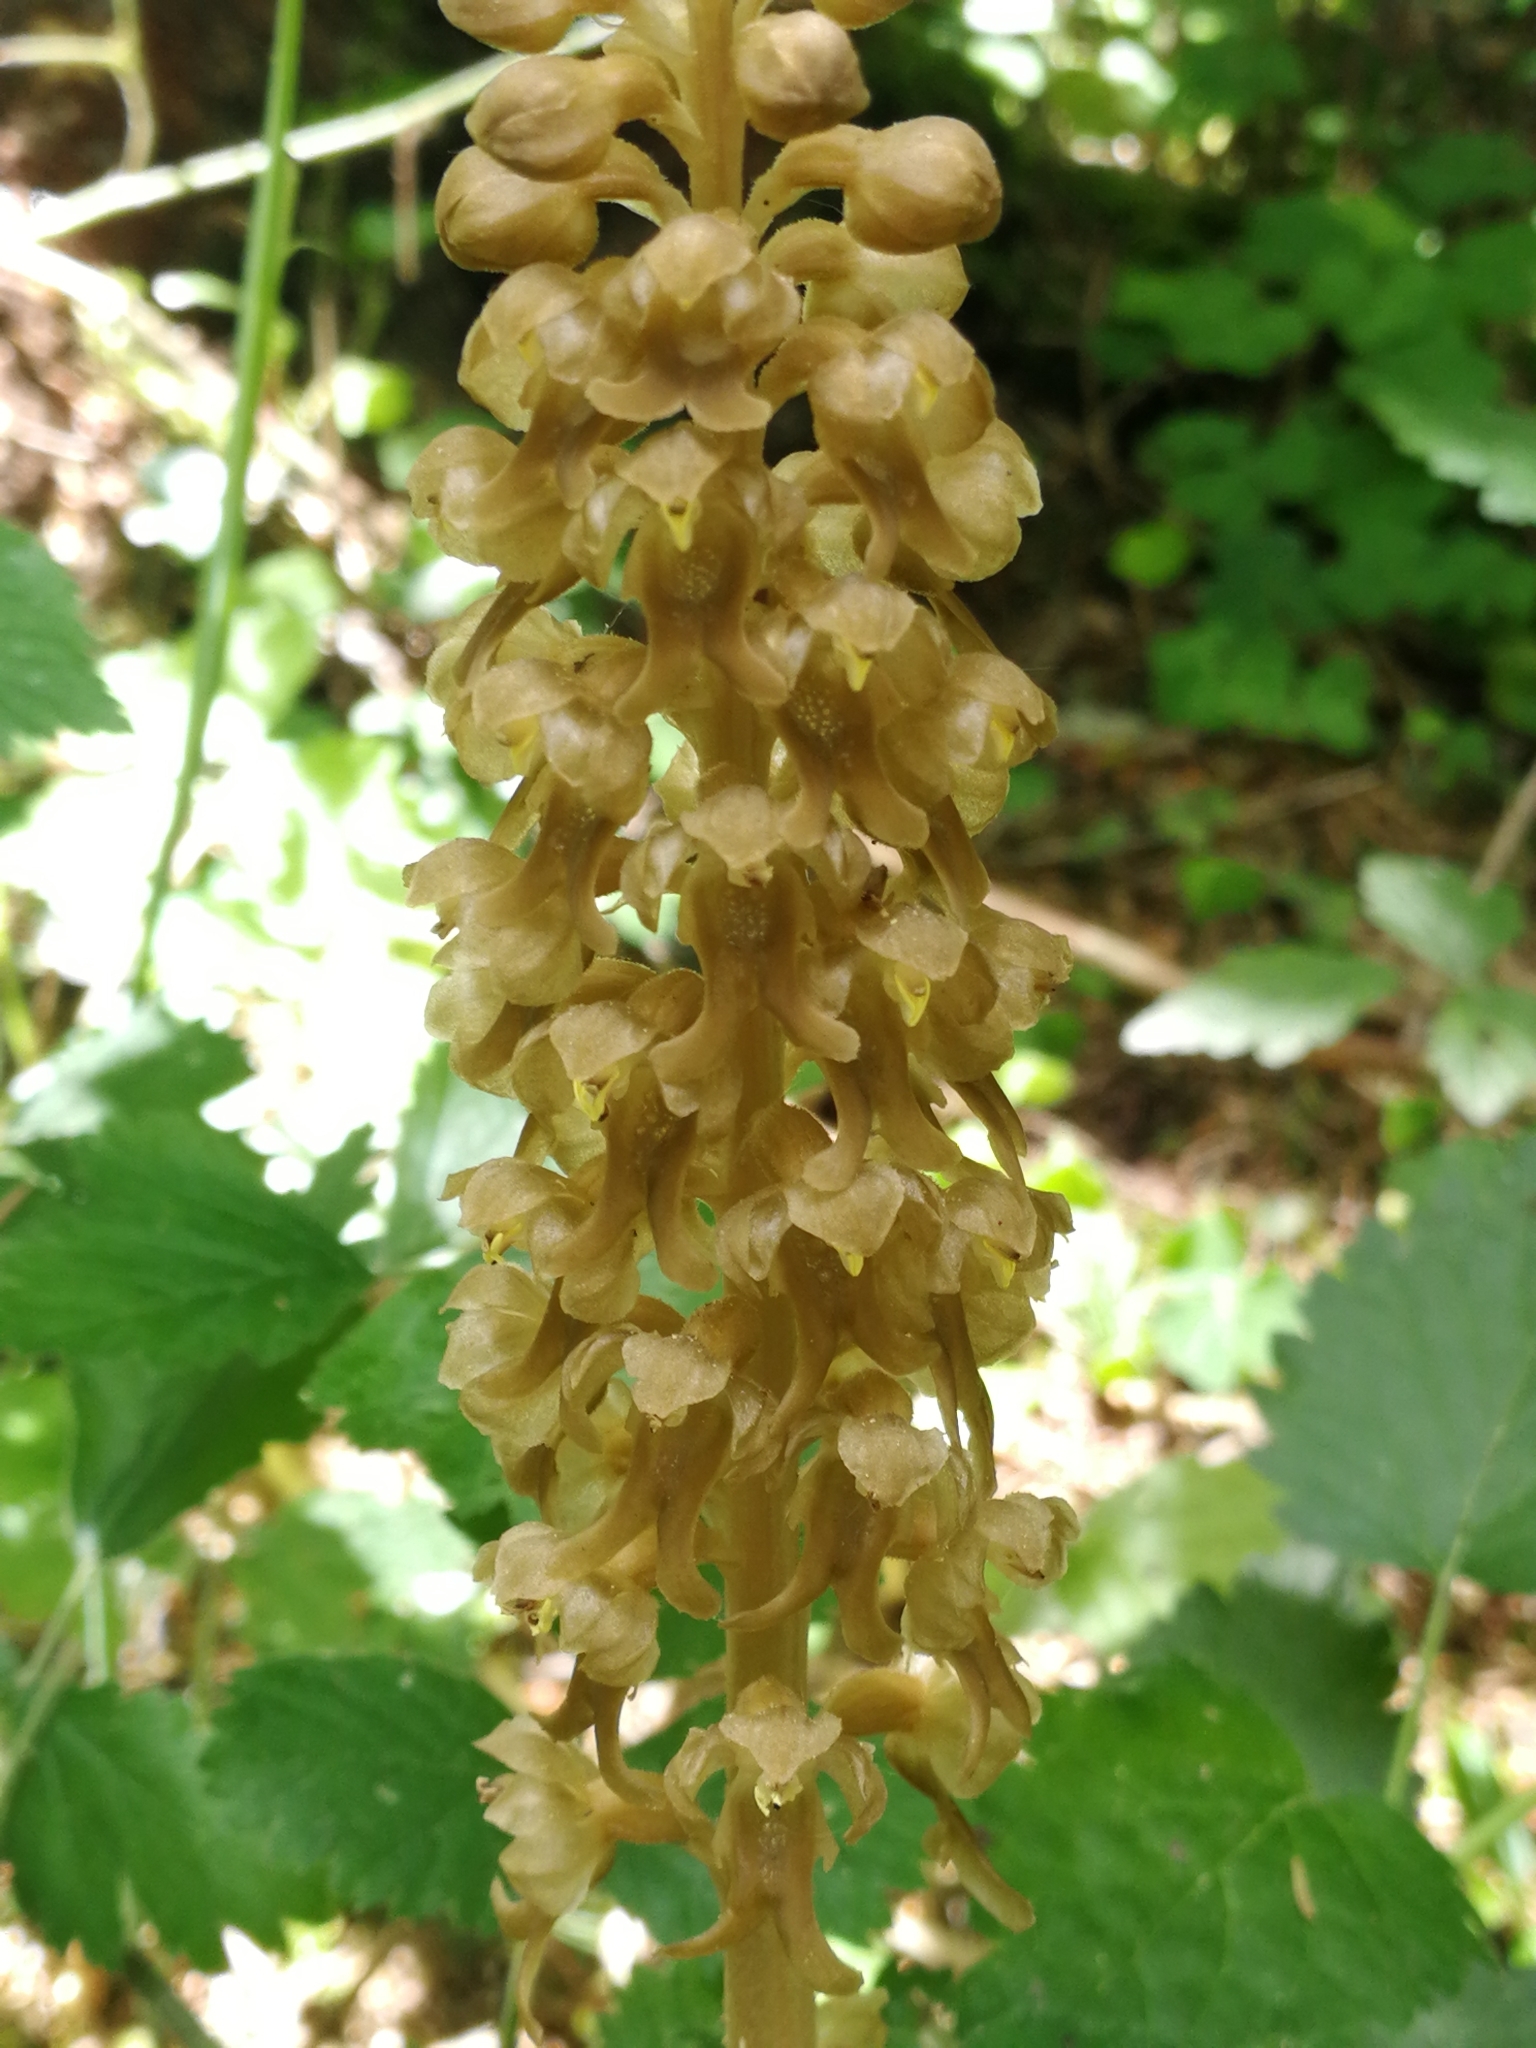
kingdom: Plantae
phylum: Tracheophyta
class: Liliopsida
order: Asparagales
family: Orchidaceae
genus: Neottia
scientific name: Neottia nidus-avis
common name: Bird's-nest orchid
